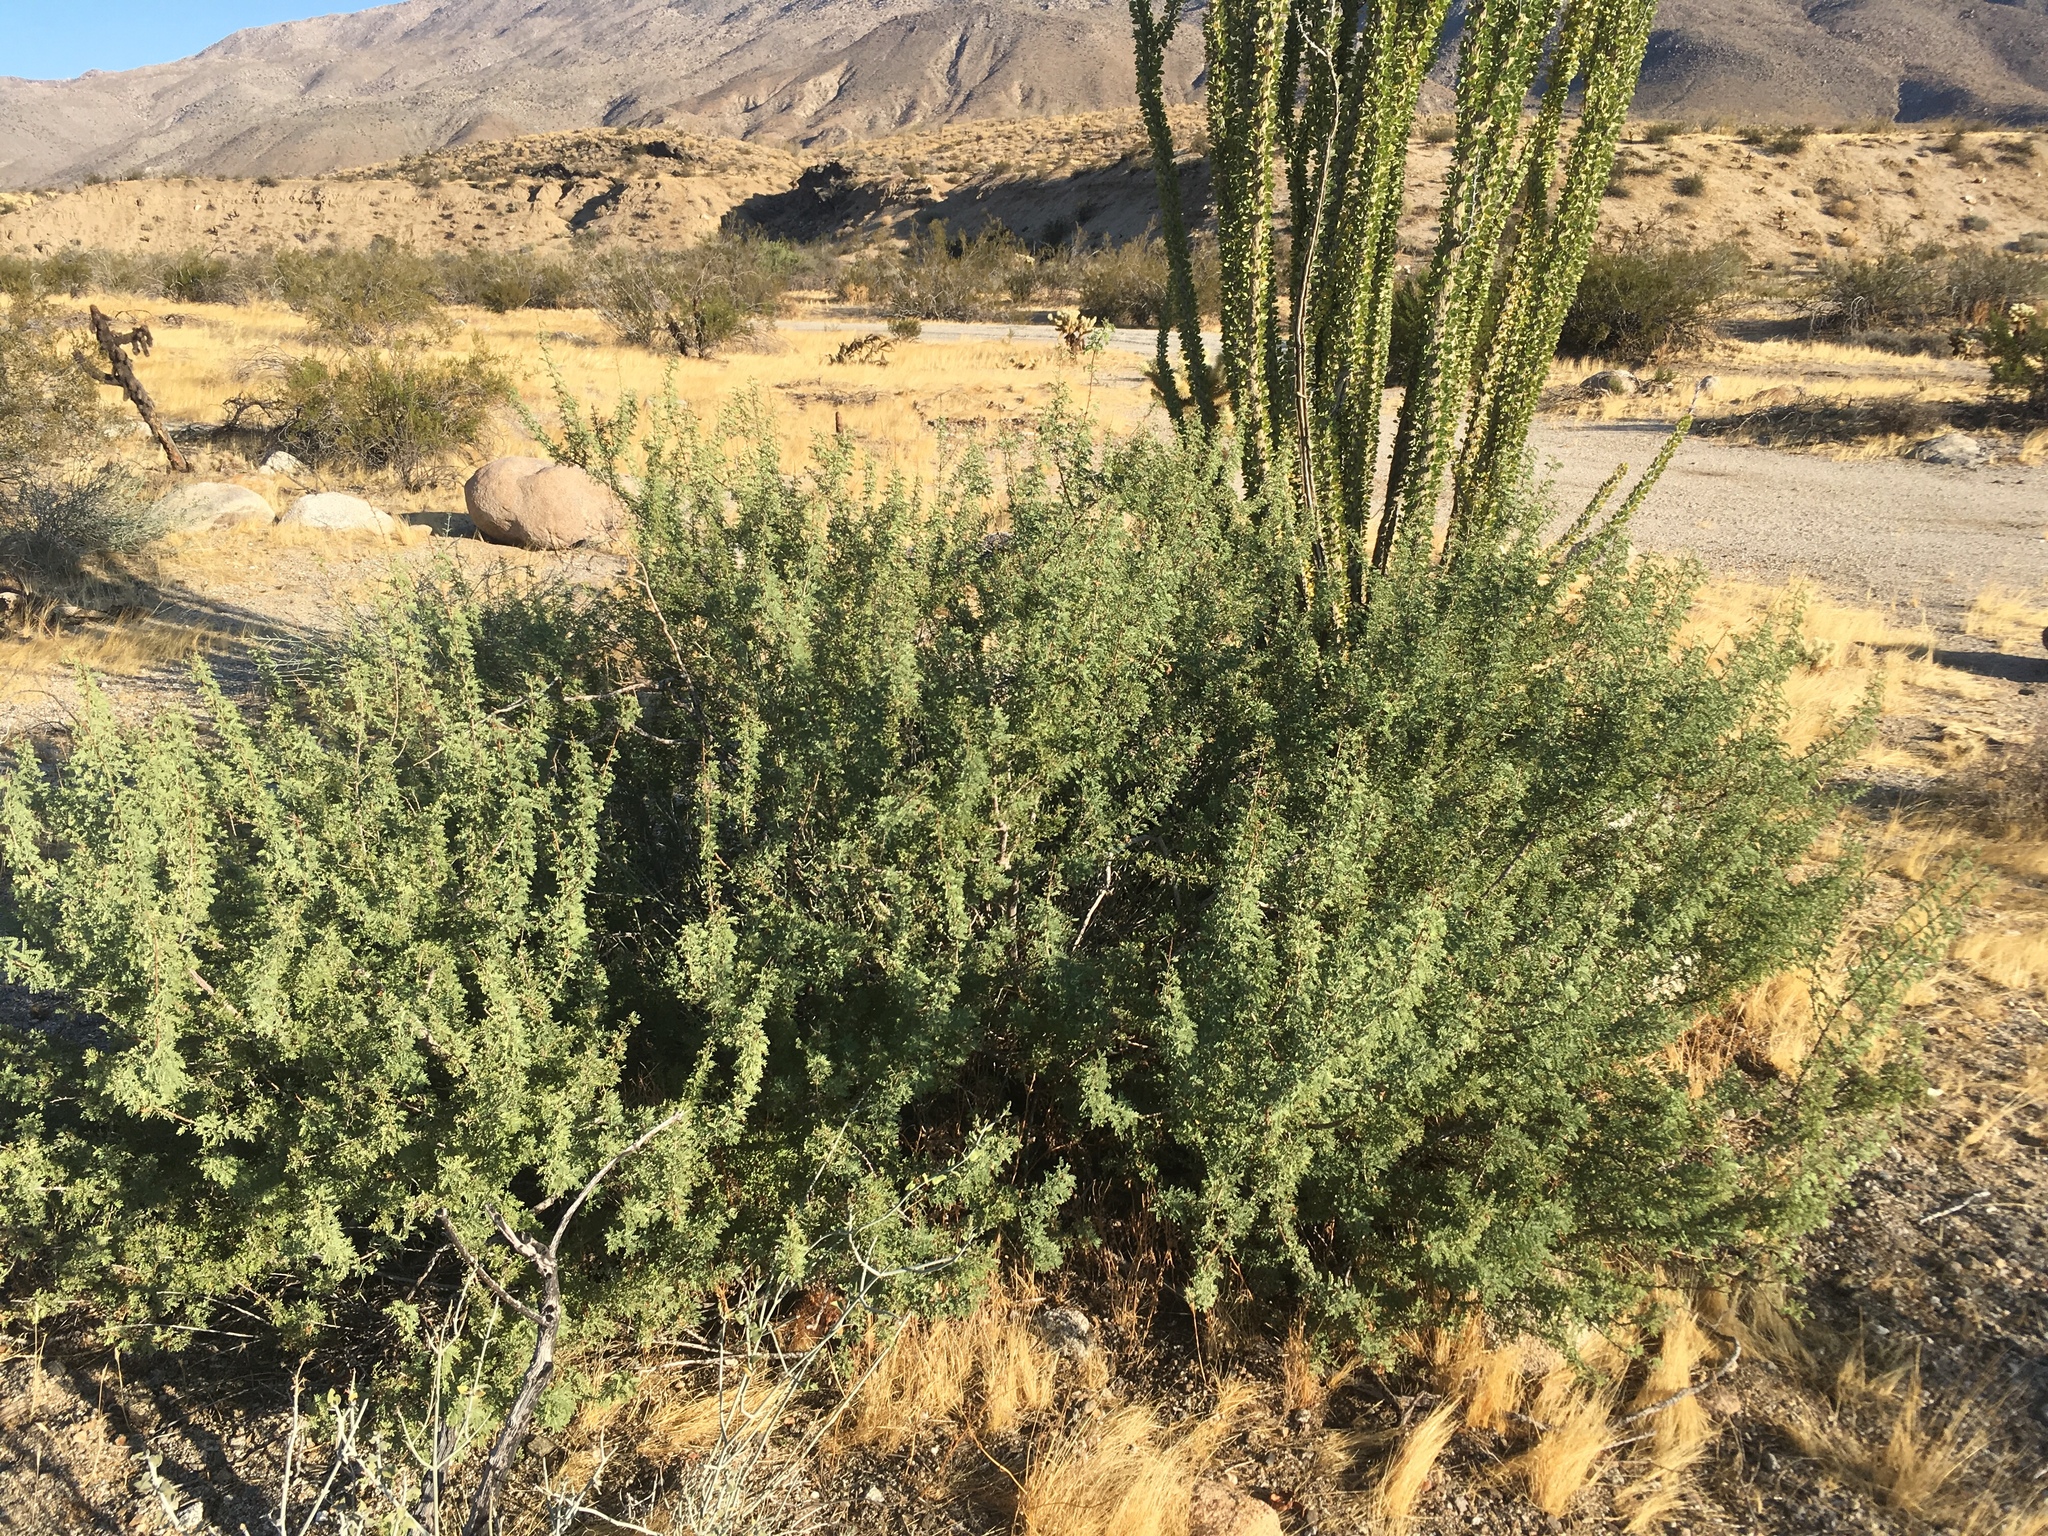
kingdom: Plantae
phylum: Tracheophyta
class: Magnoliopsida
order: Fabales
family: Fabaceae
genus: Senegalia
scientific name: Senegalia greggii
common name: Texas-mimosa
